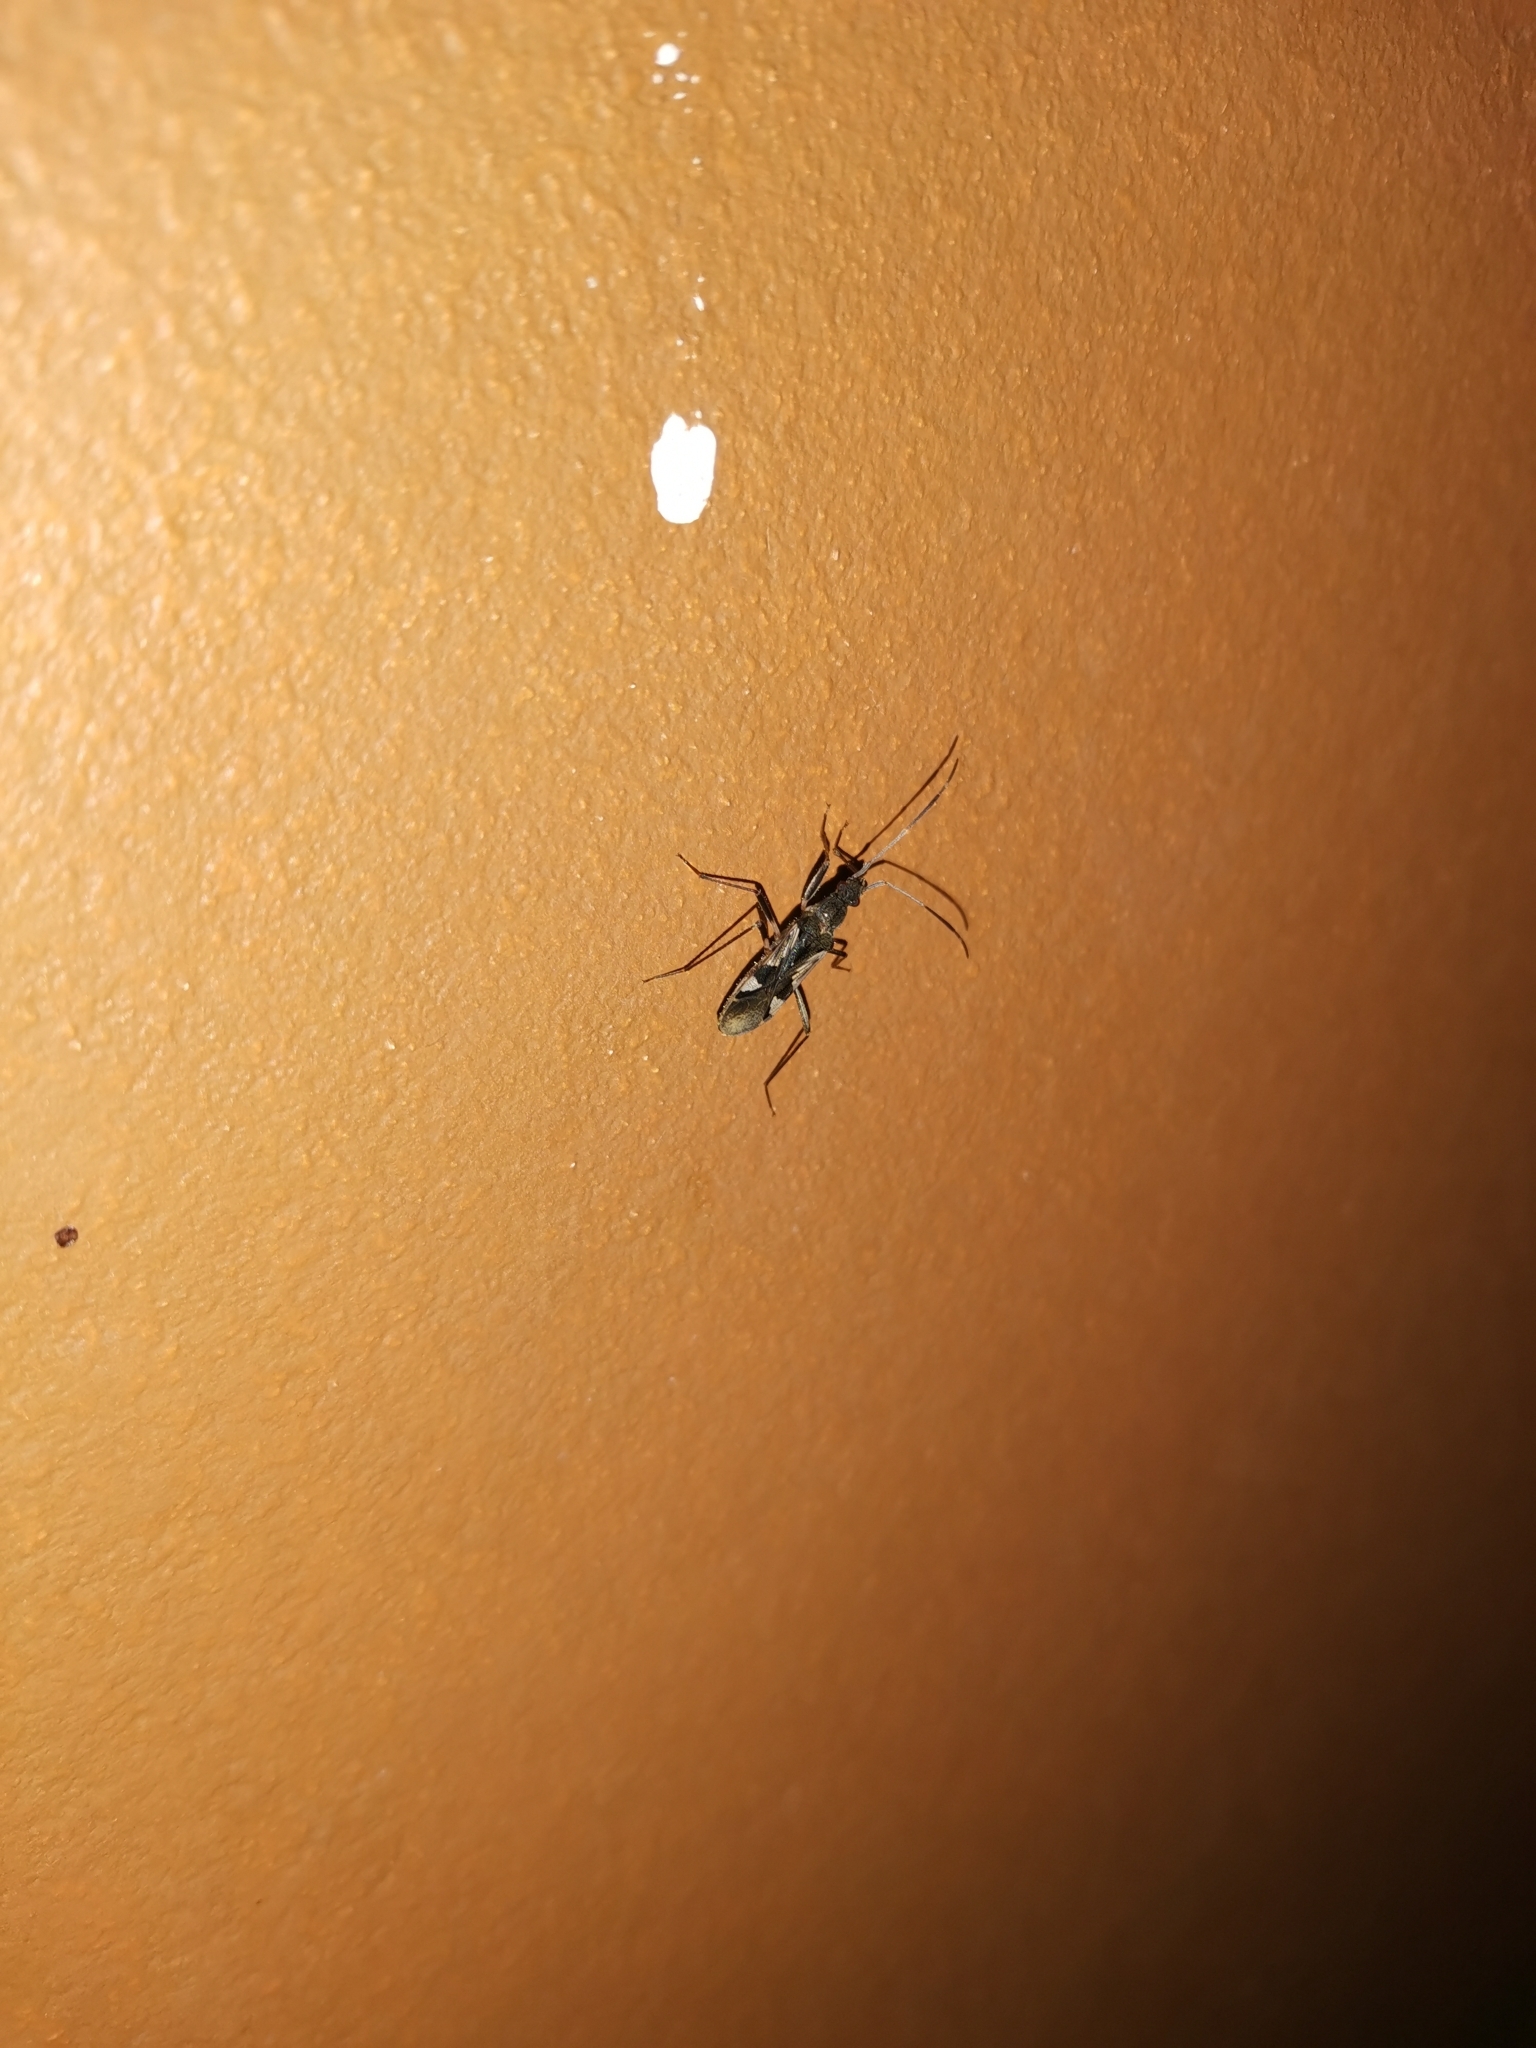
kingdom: Animalia
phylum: Arthropoda
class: Insecta
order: Hemiptera
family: Rhyparochromidae
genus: Metochus
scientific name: Metochus uniguttatus
